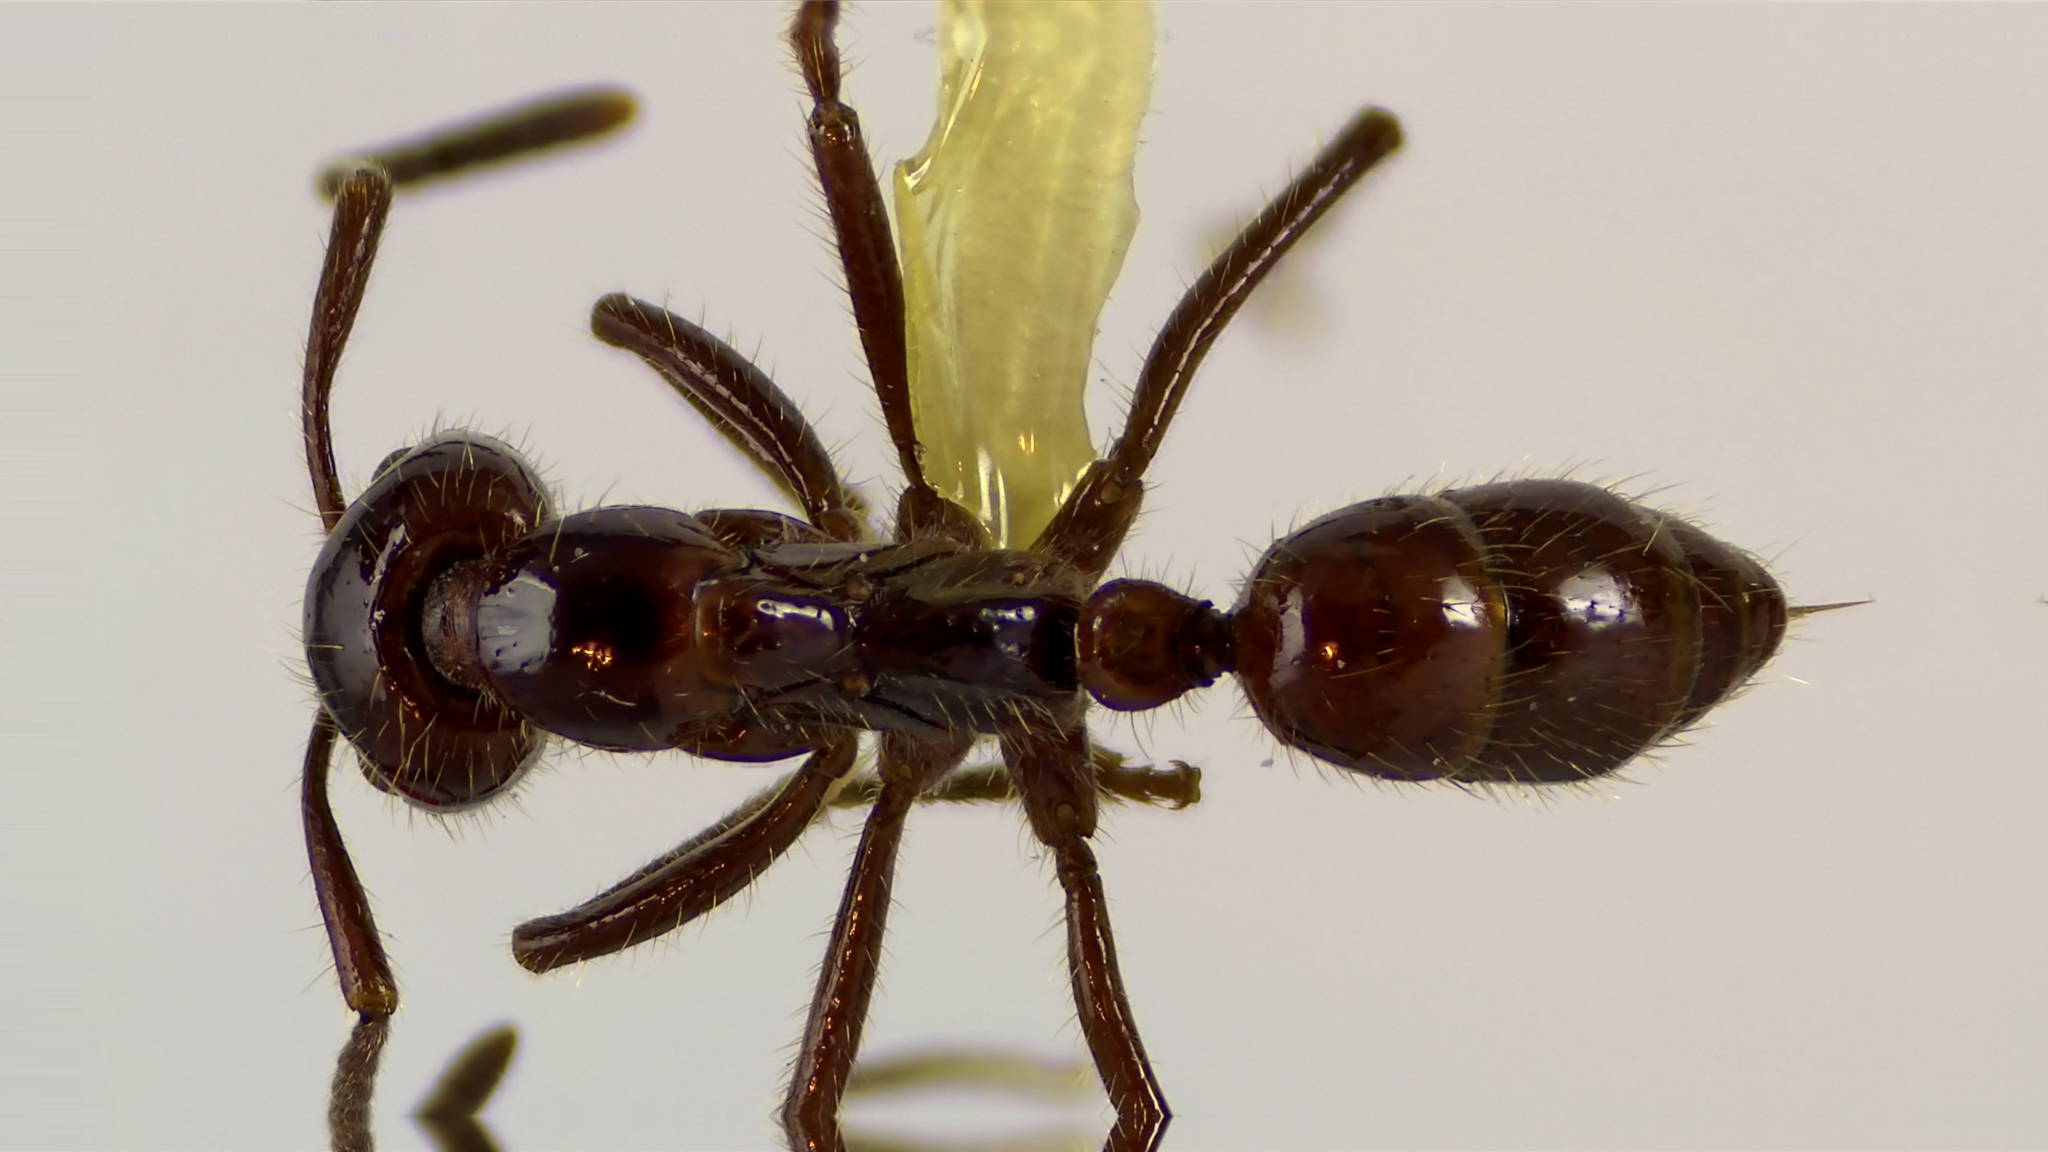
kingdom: Animalia
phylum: Arthropoda
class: Insecta
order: Hymenoptera
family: Formicidae
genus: Leptogenys
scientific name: Leptogenys
